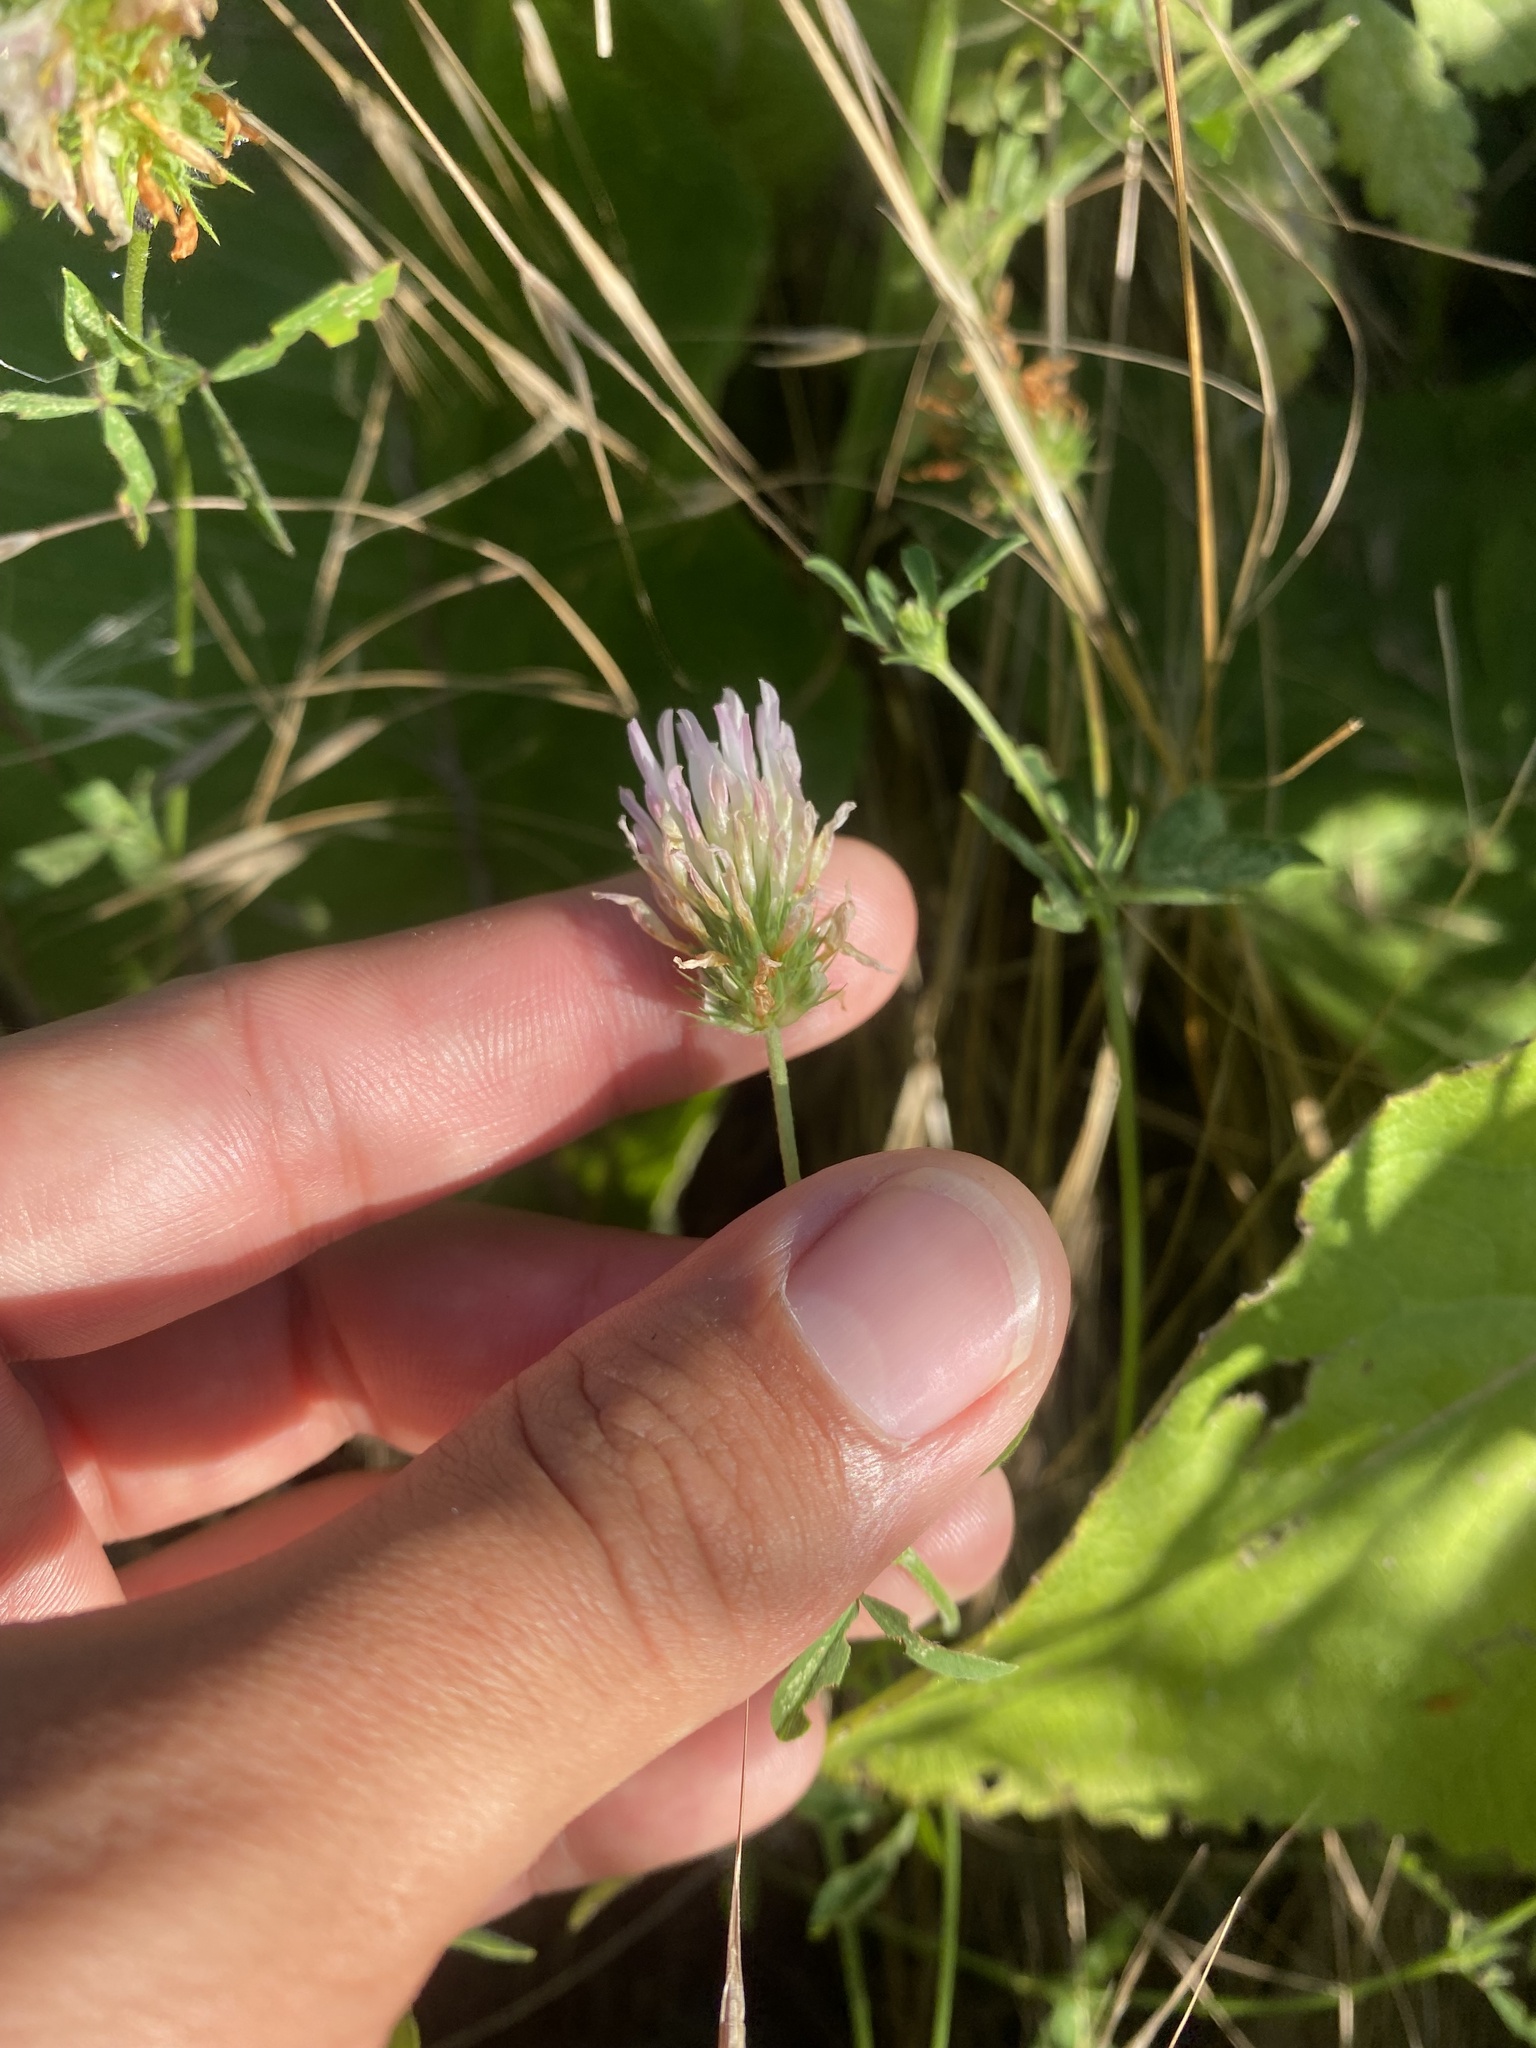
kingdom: Plantae
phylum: Tracheophyta
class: Magnoliopsida
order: Fabales
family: Fabaceae
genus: Trifolium
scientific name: Trifolium pratense
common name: Red clover
